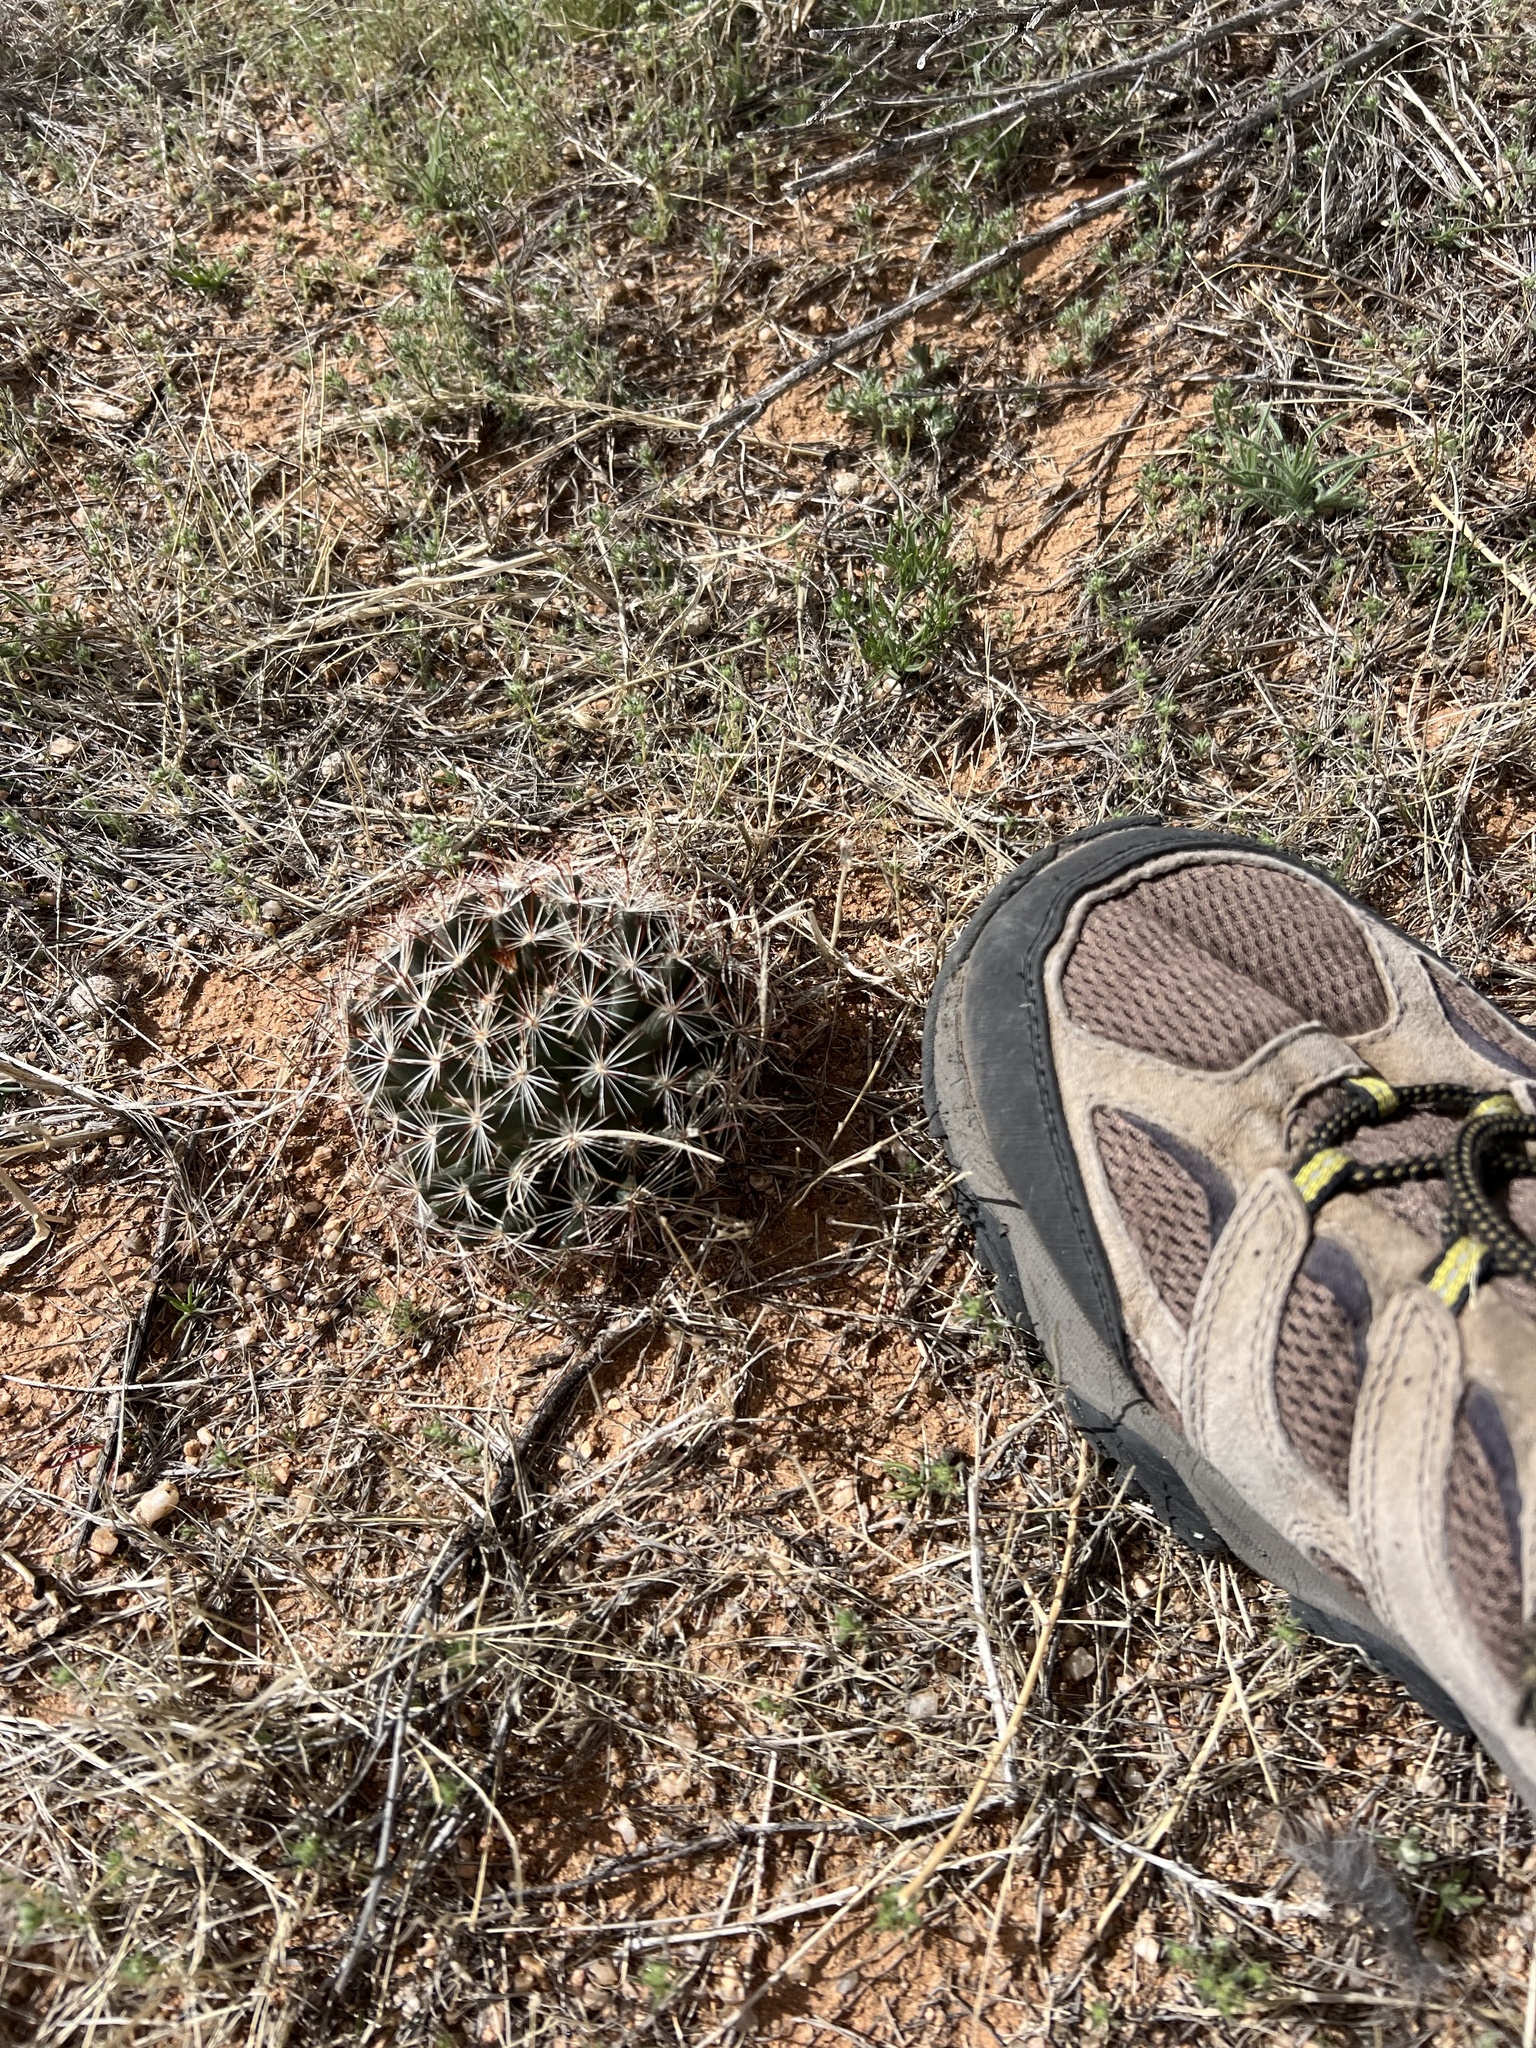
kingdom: Plantae
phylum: Tracheophyta
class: Magnoliopsida
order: Caryophyllales
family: Cactaceae
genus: Cochemiea
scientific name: Cochemiea wrightii
